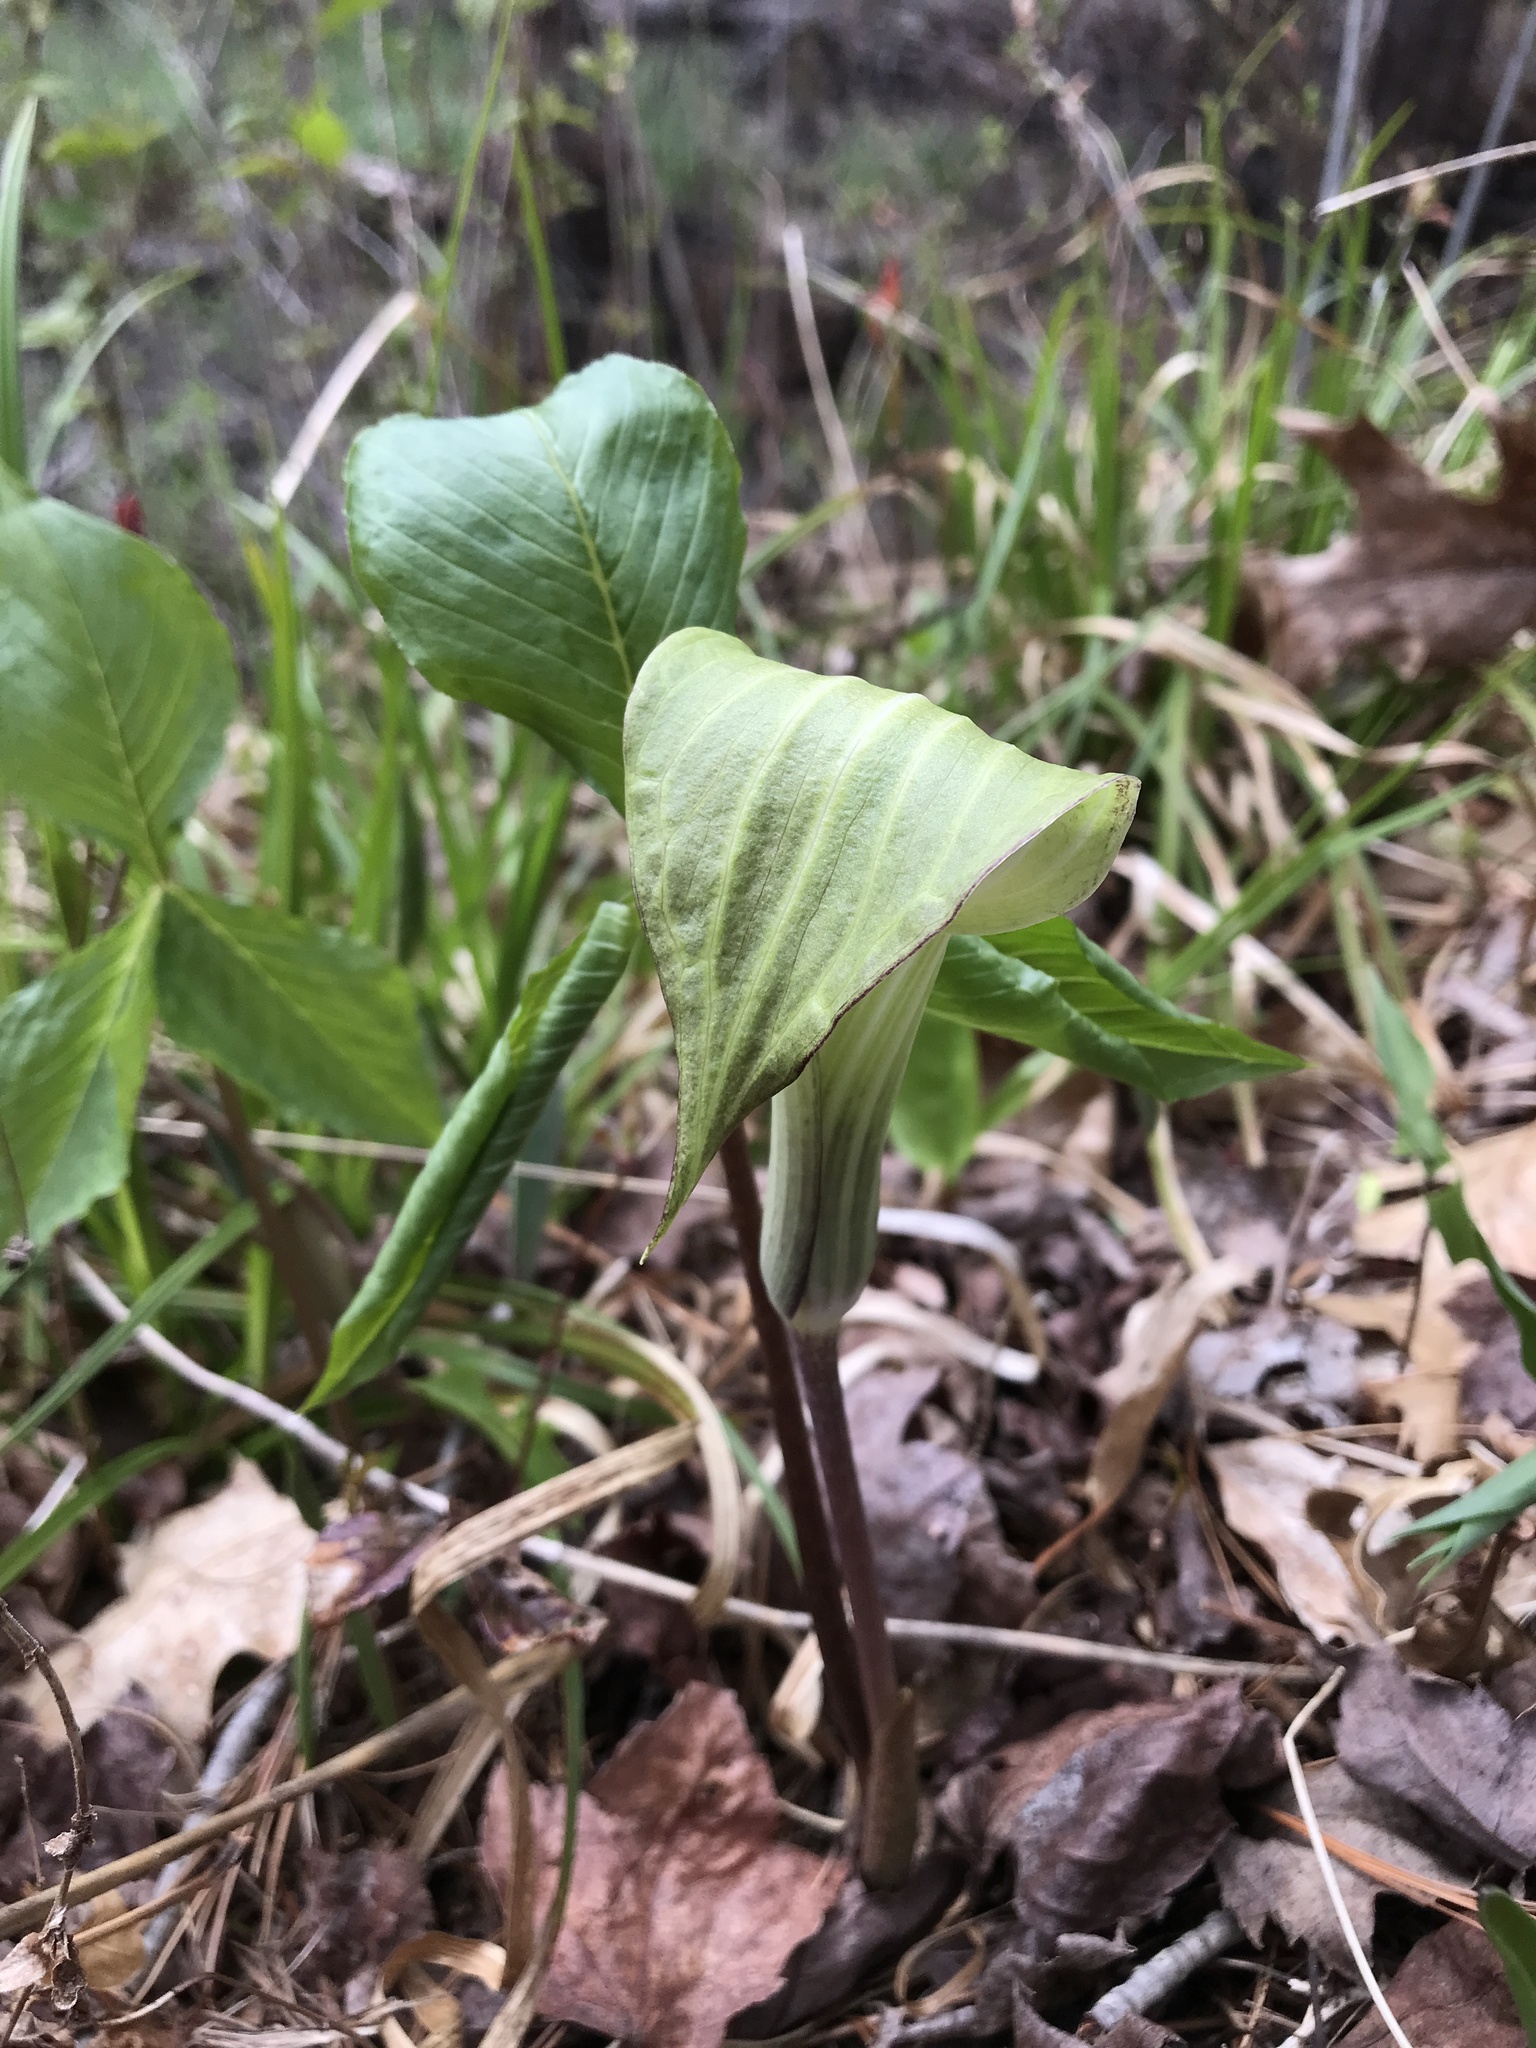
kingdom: Plantae
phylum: Tracheophyta
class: Liliopsida
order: Alismatales
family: Araceae
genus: Arisaema
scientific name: Arisaema triphyllum
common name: Jack-in-the-pulpit
